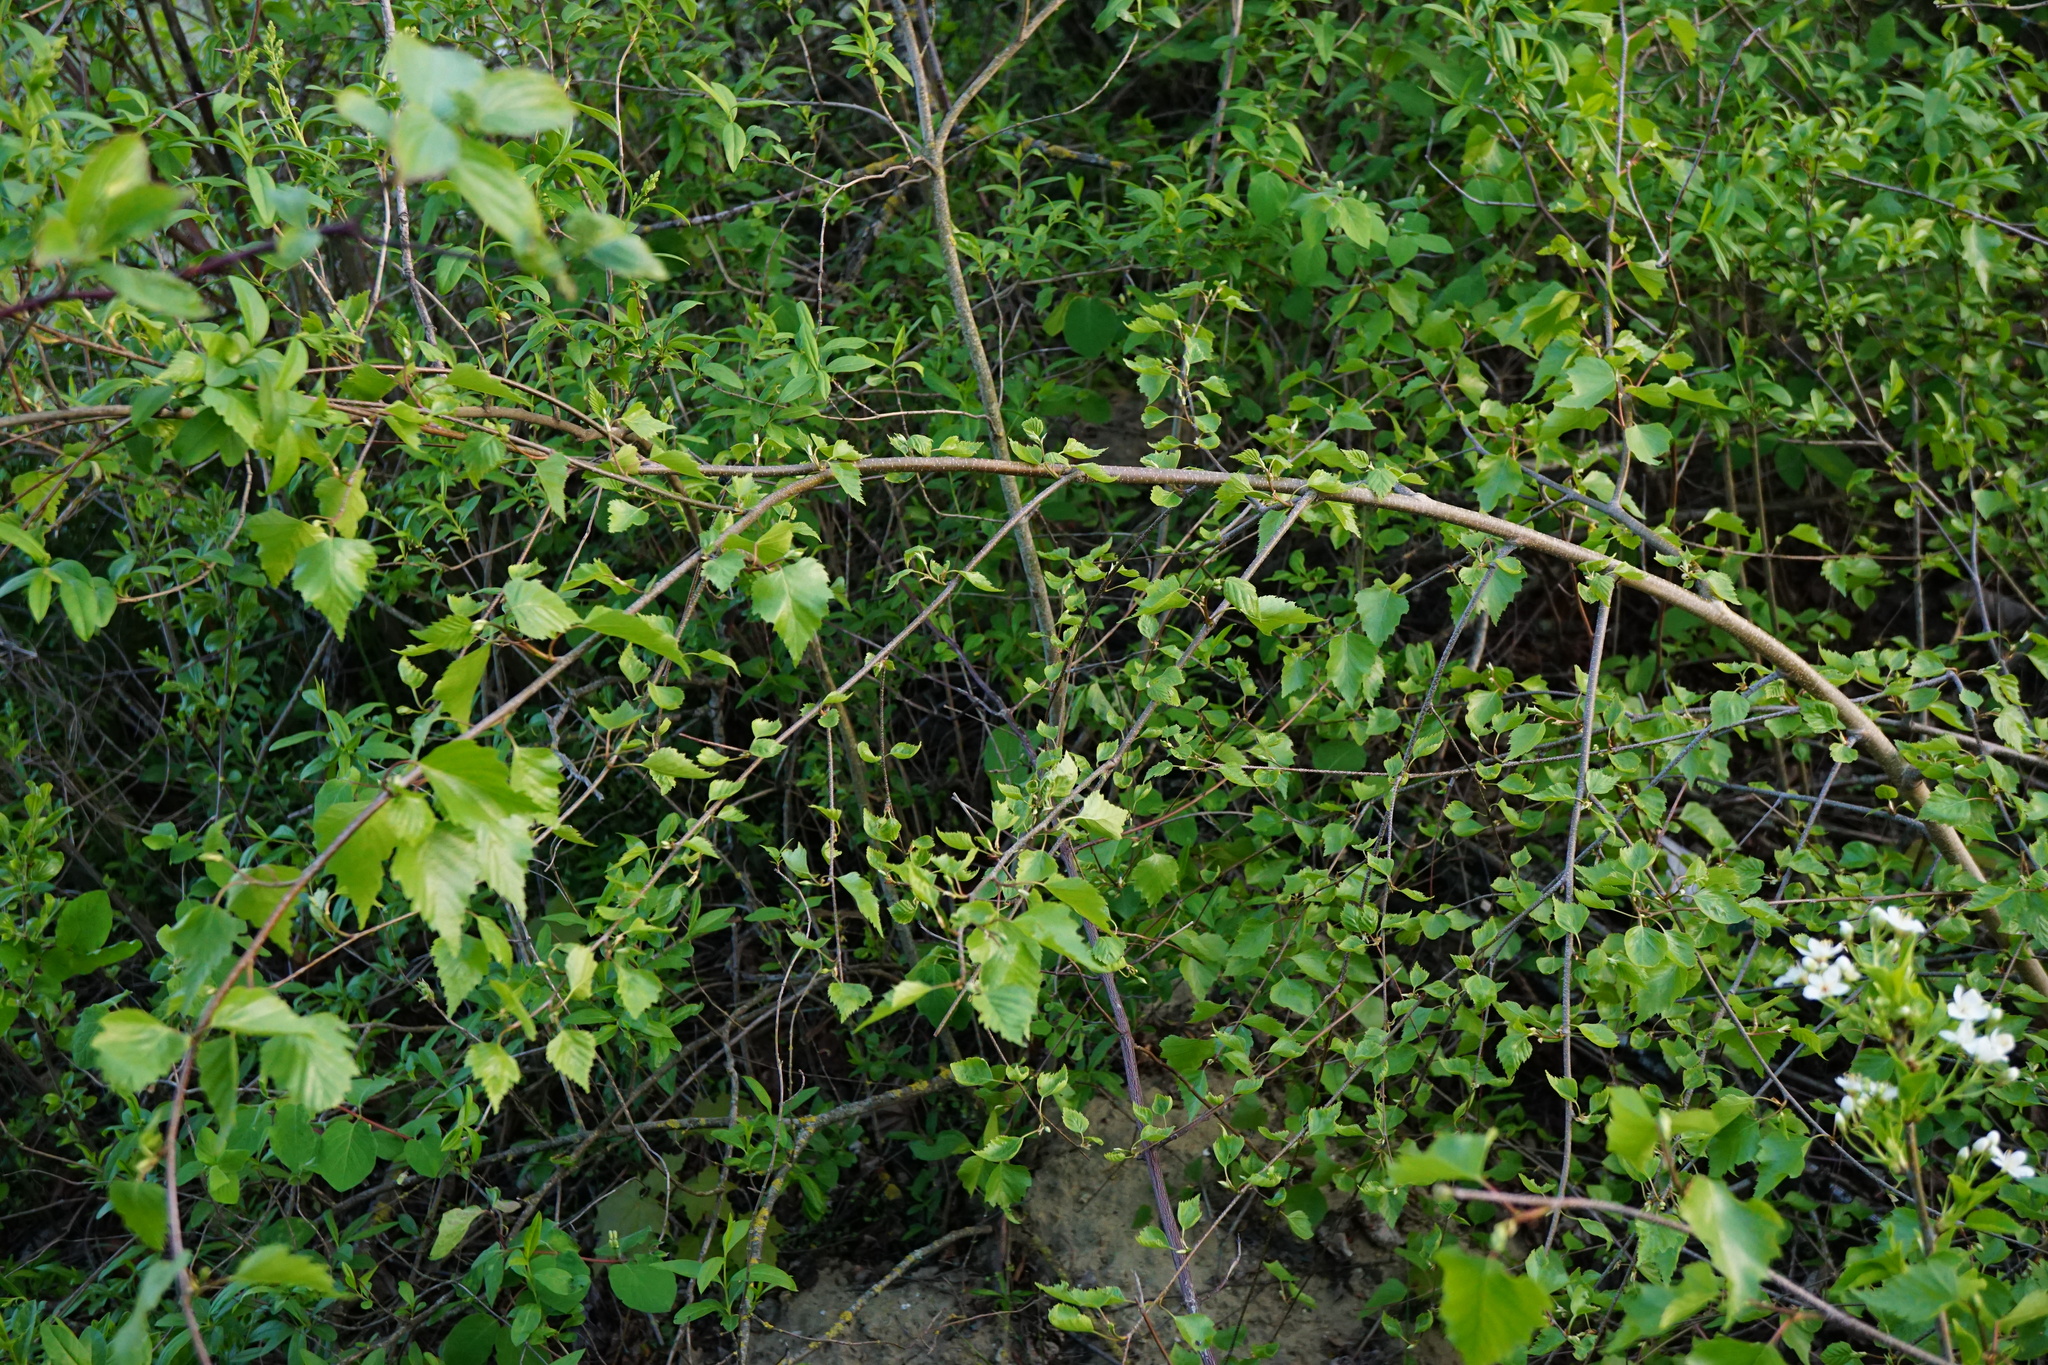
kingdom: Plantae
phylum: Tracheophyta
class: Magnoliopsida
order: Fagales
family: Betulaceae
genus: Betula
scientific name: Betula pendula
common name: Silver birch
